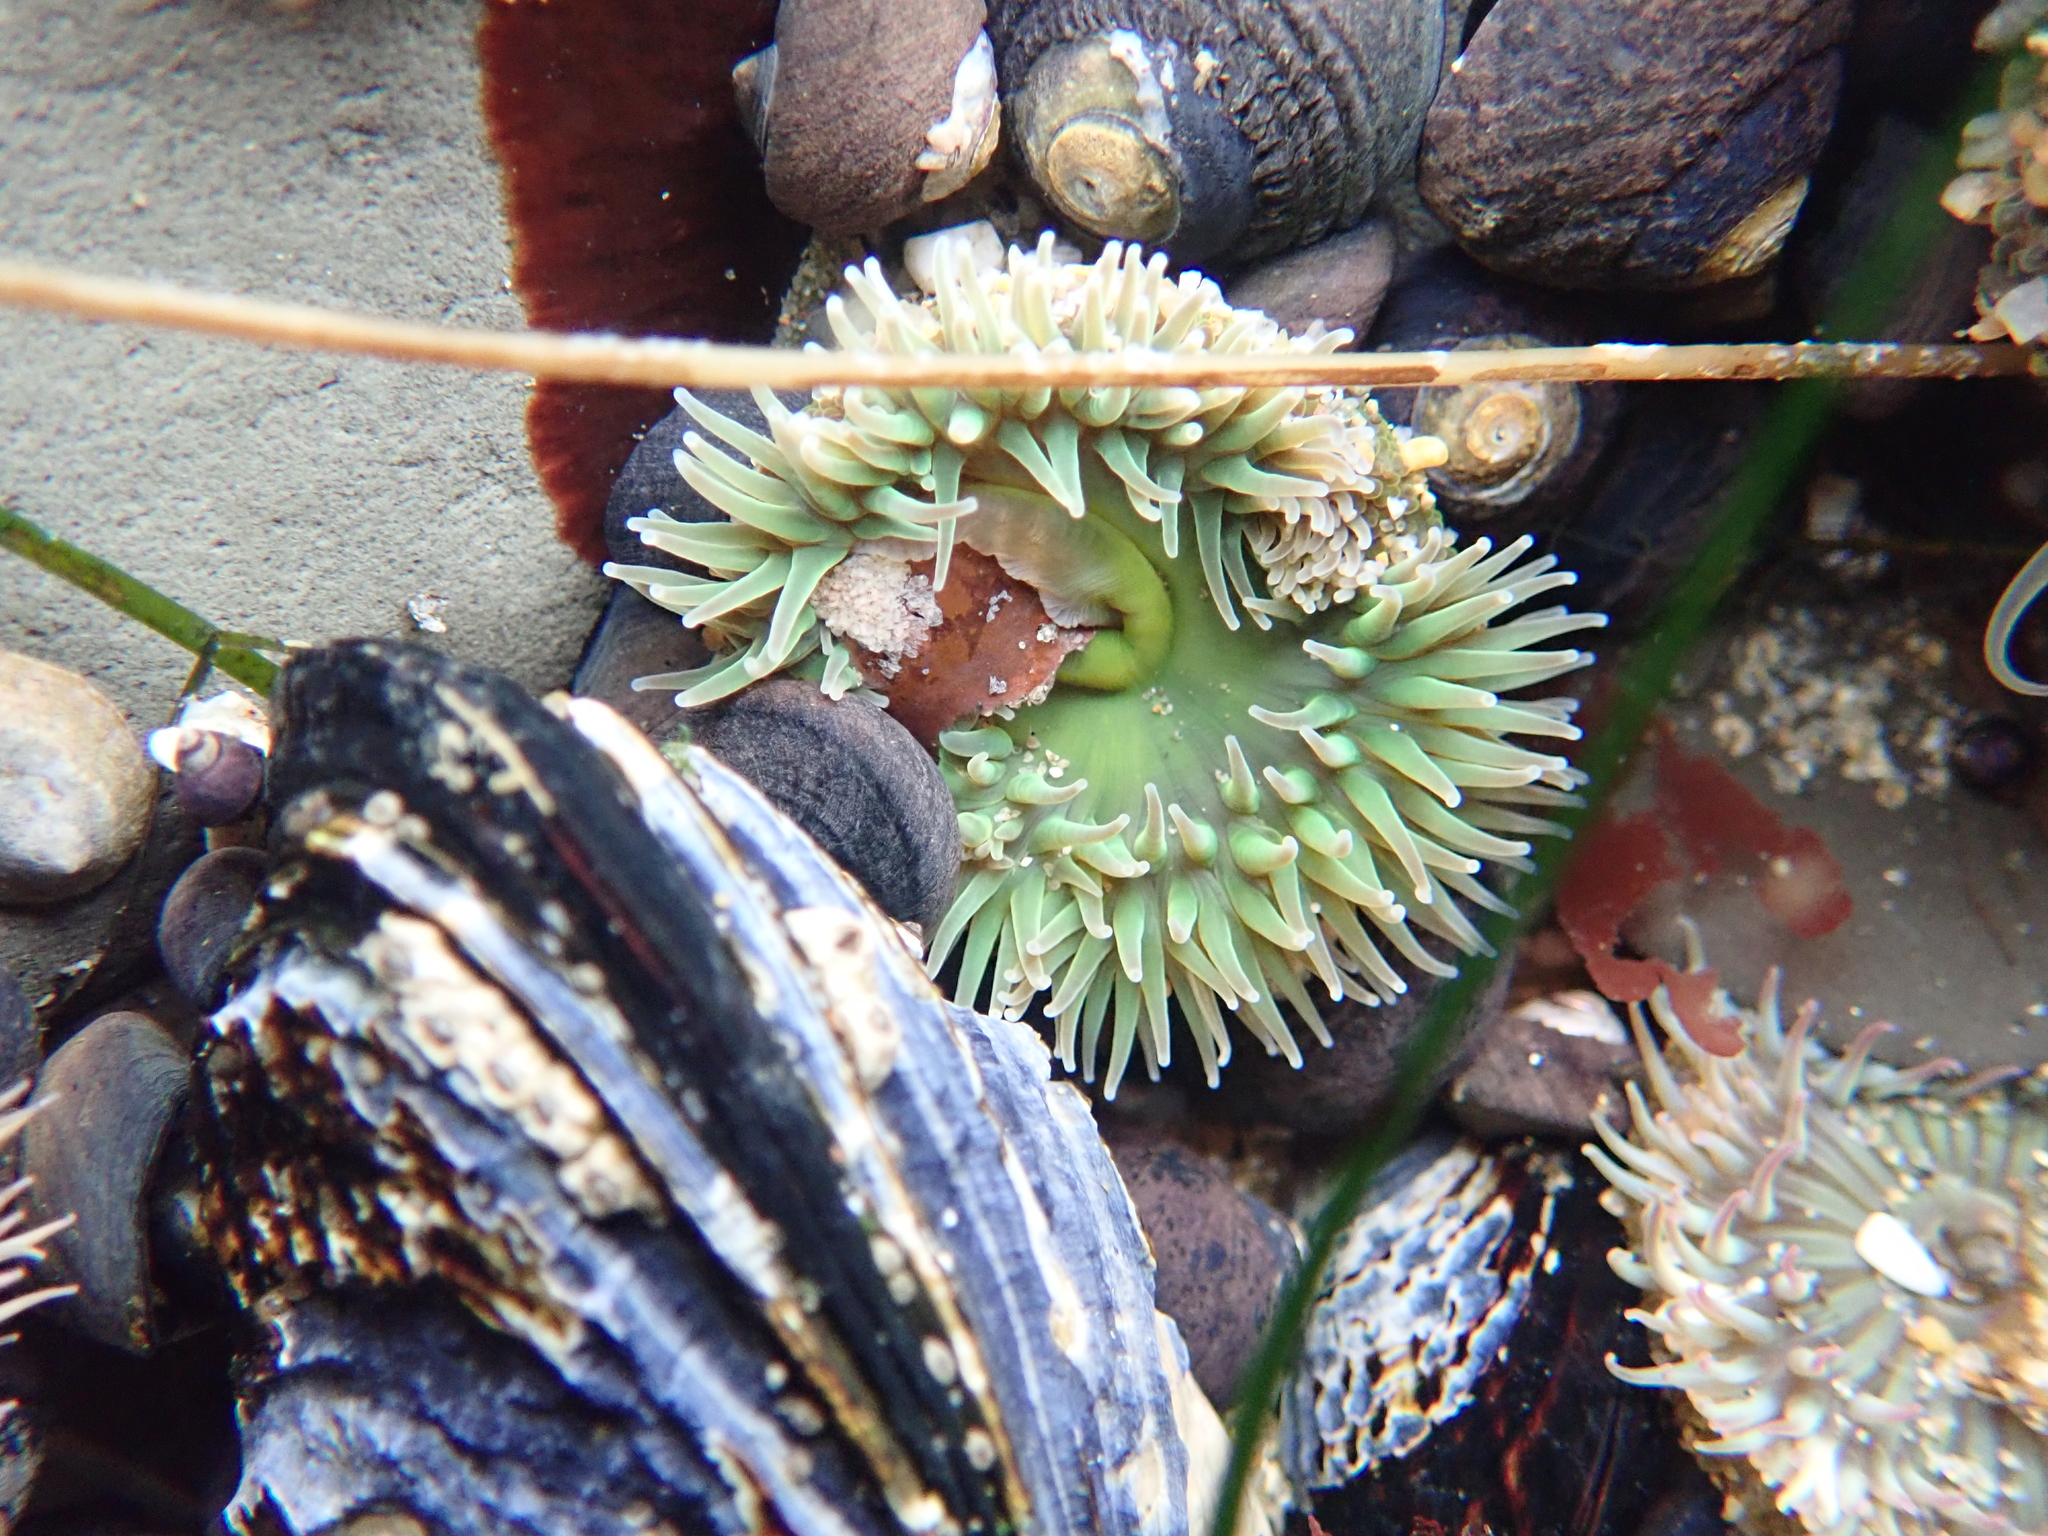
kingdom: Animalia
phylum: Cnidaria
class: Anthozoa
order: Actiniaria
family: Actiniidae
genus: Anthopleura
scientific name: Anthopleura xanthogrammica
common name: Giant green anemone
